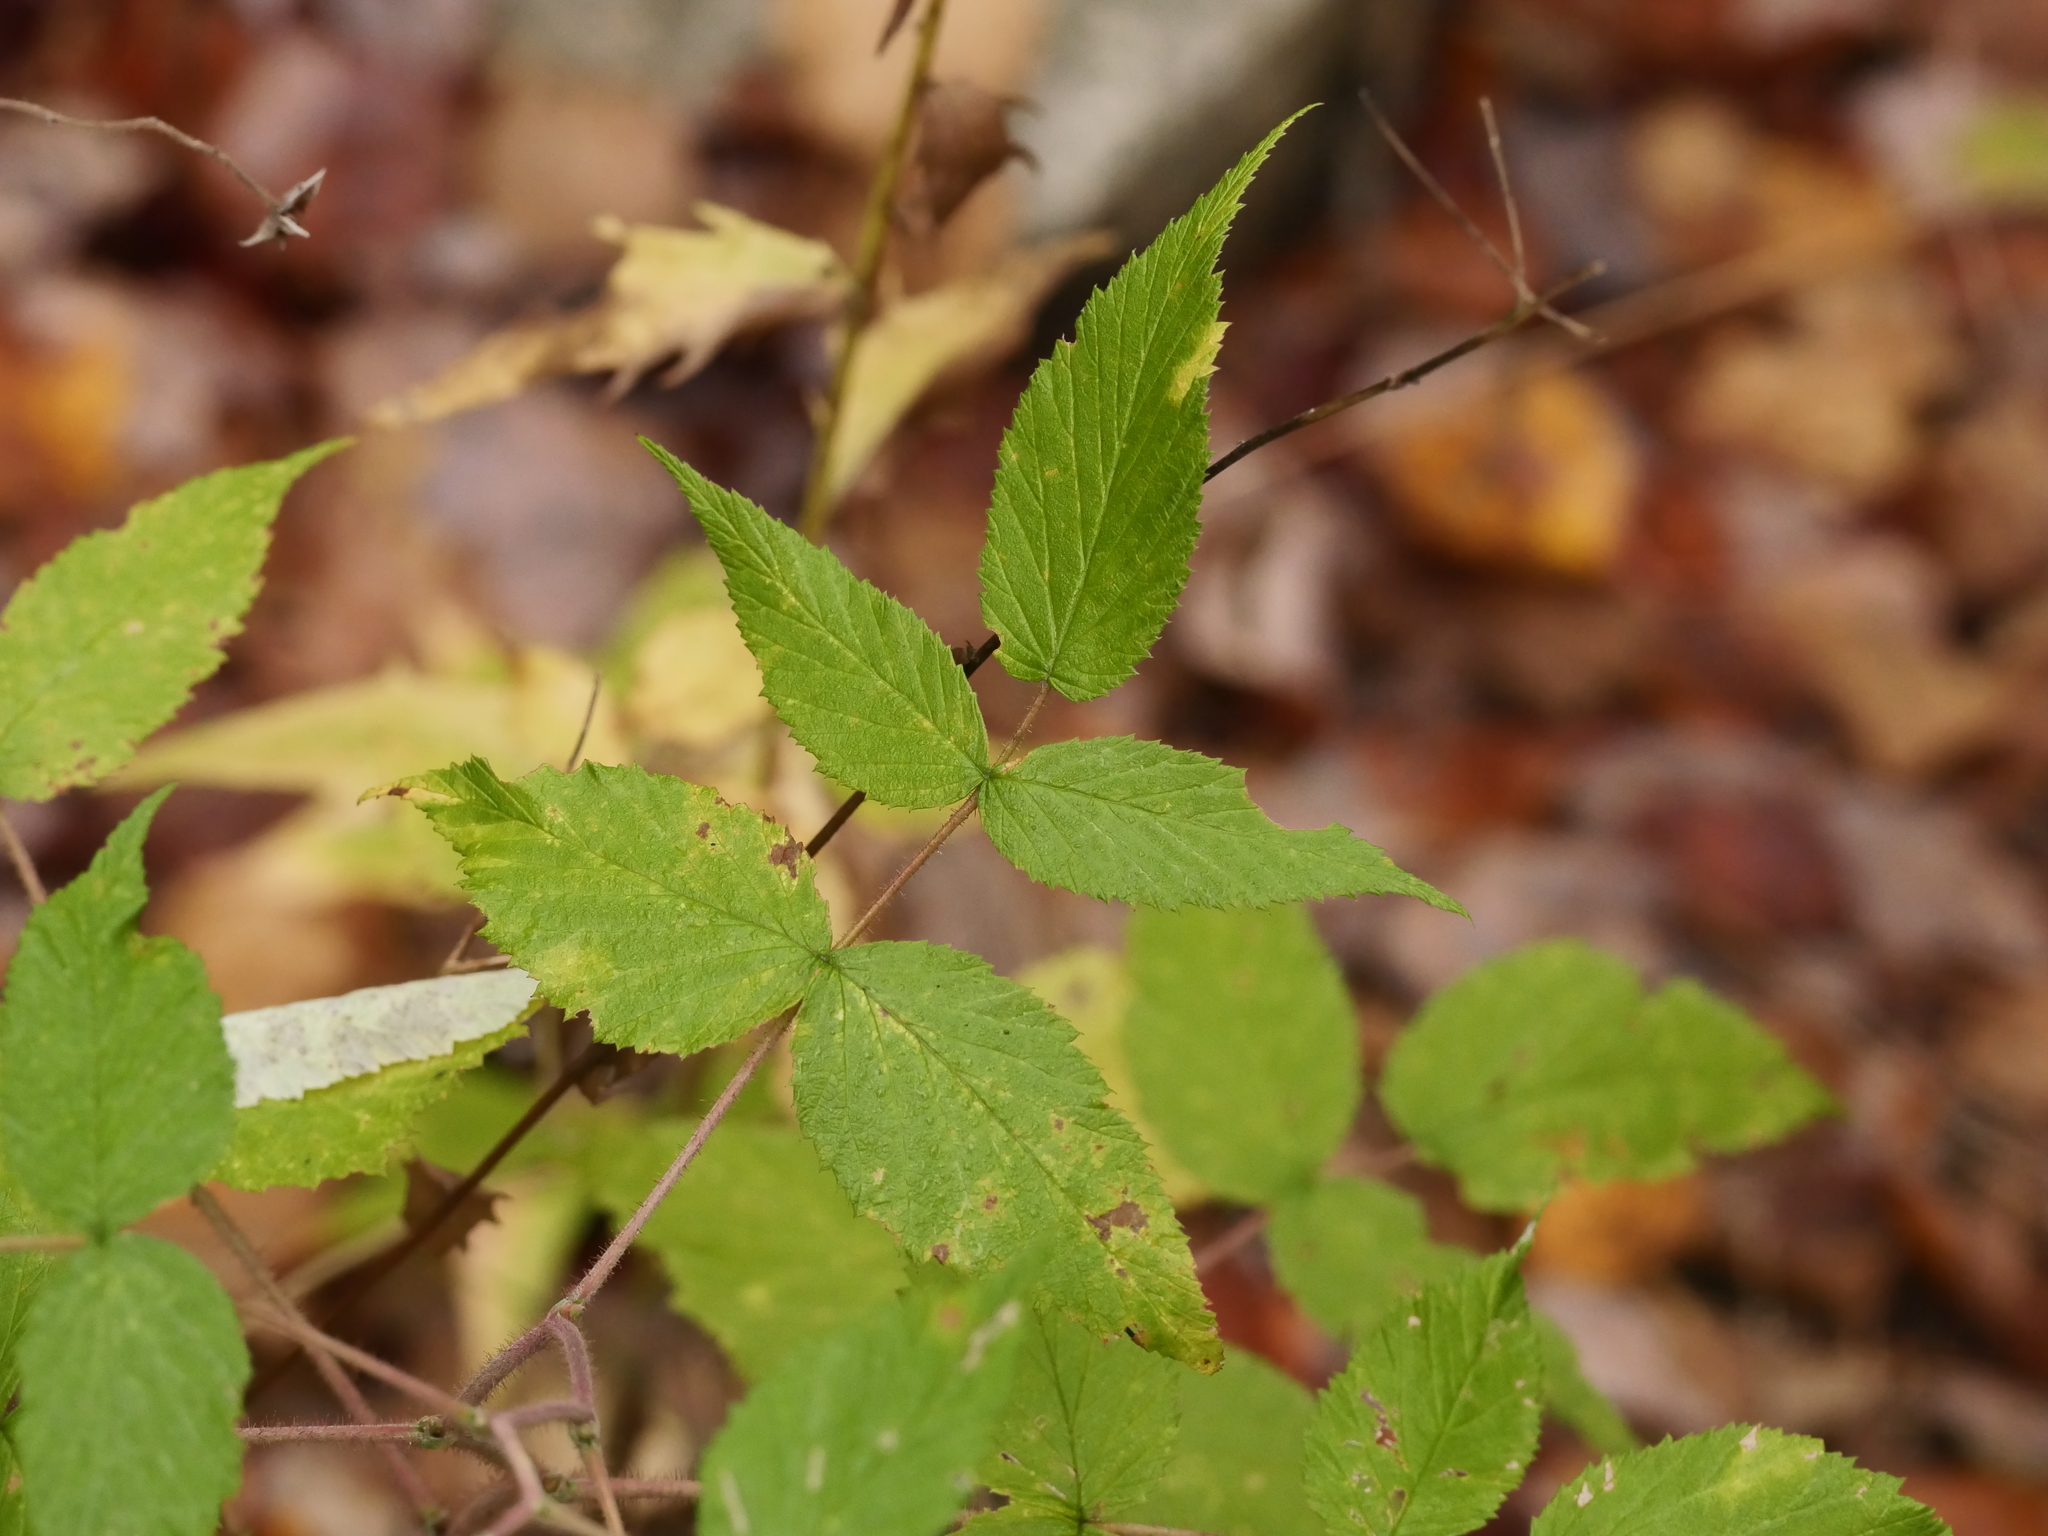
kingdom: Plantae
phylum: Tracheophyta
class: Magnoliopsida
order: Rosales
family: Rosaceae
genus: Rubus
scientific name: Rubus idaeus
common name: Raspberry
